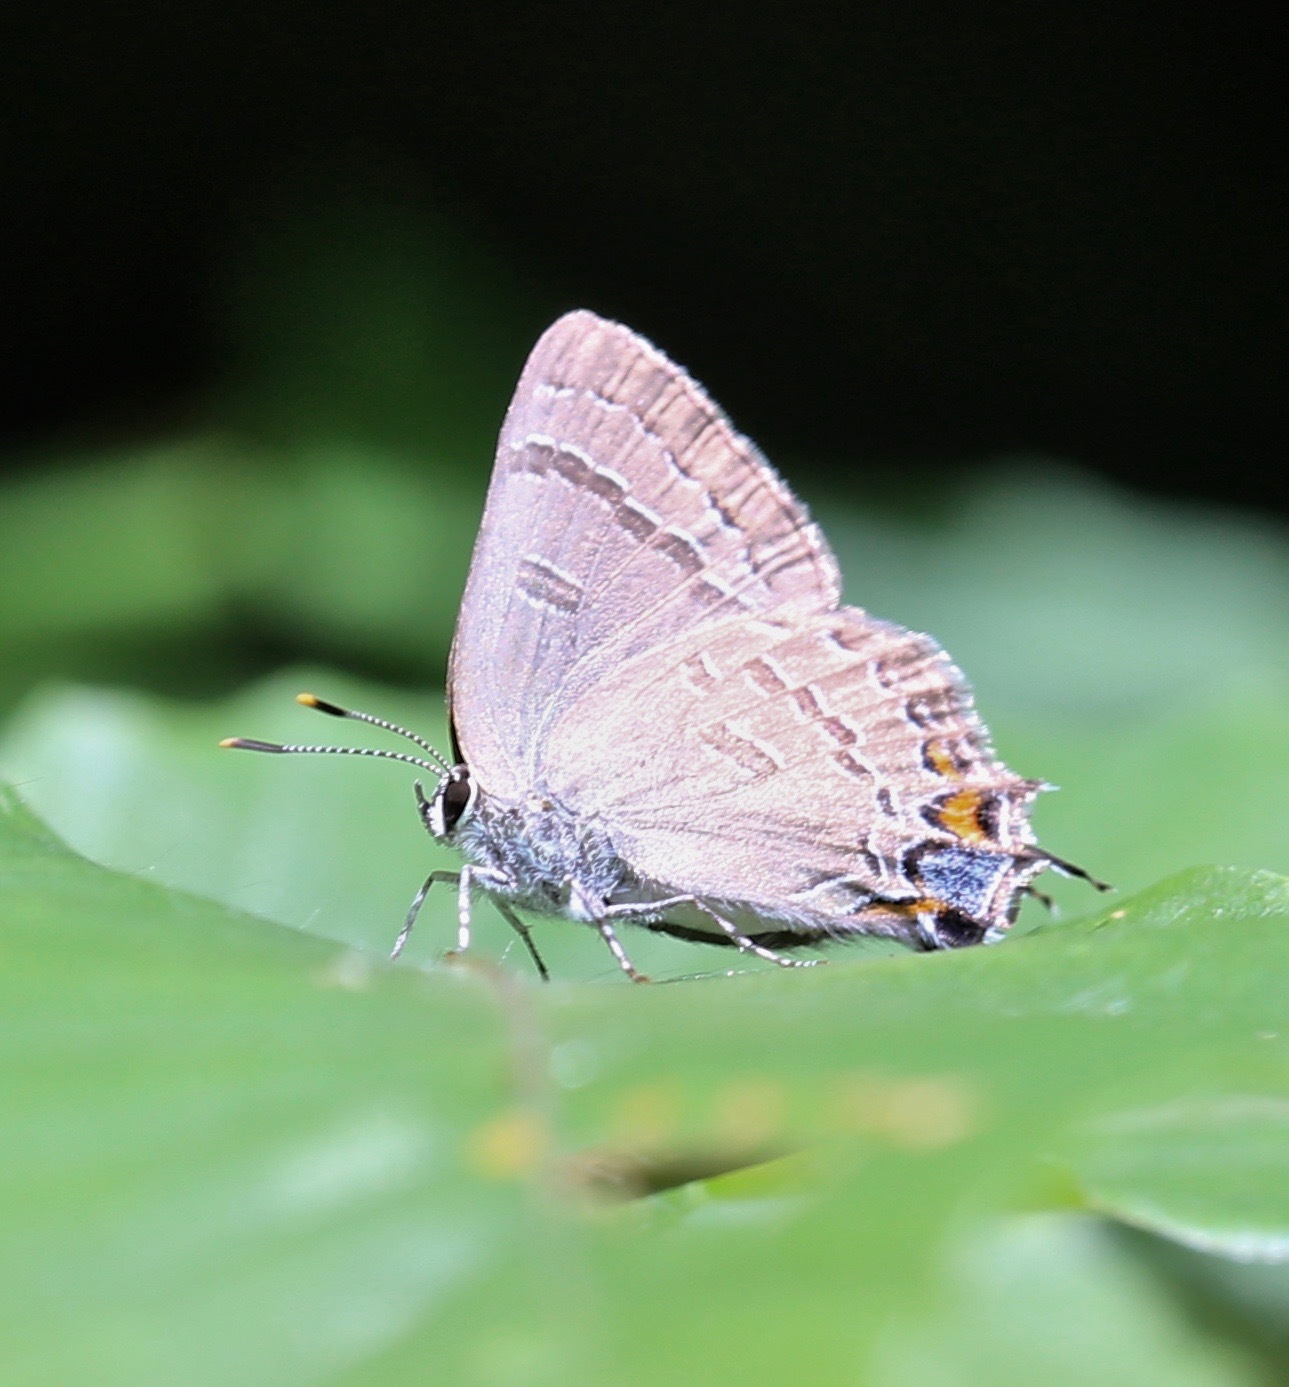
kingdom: Animalia
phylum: Arthropoda
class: Insecta
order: Lepidoptera
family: Lycaenidae
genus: Satyrium
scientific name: Satyrium calanus
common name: Banded hairstreak
